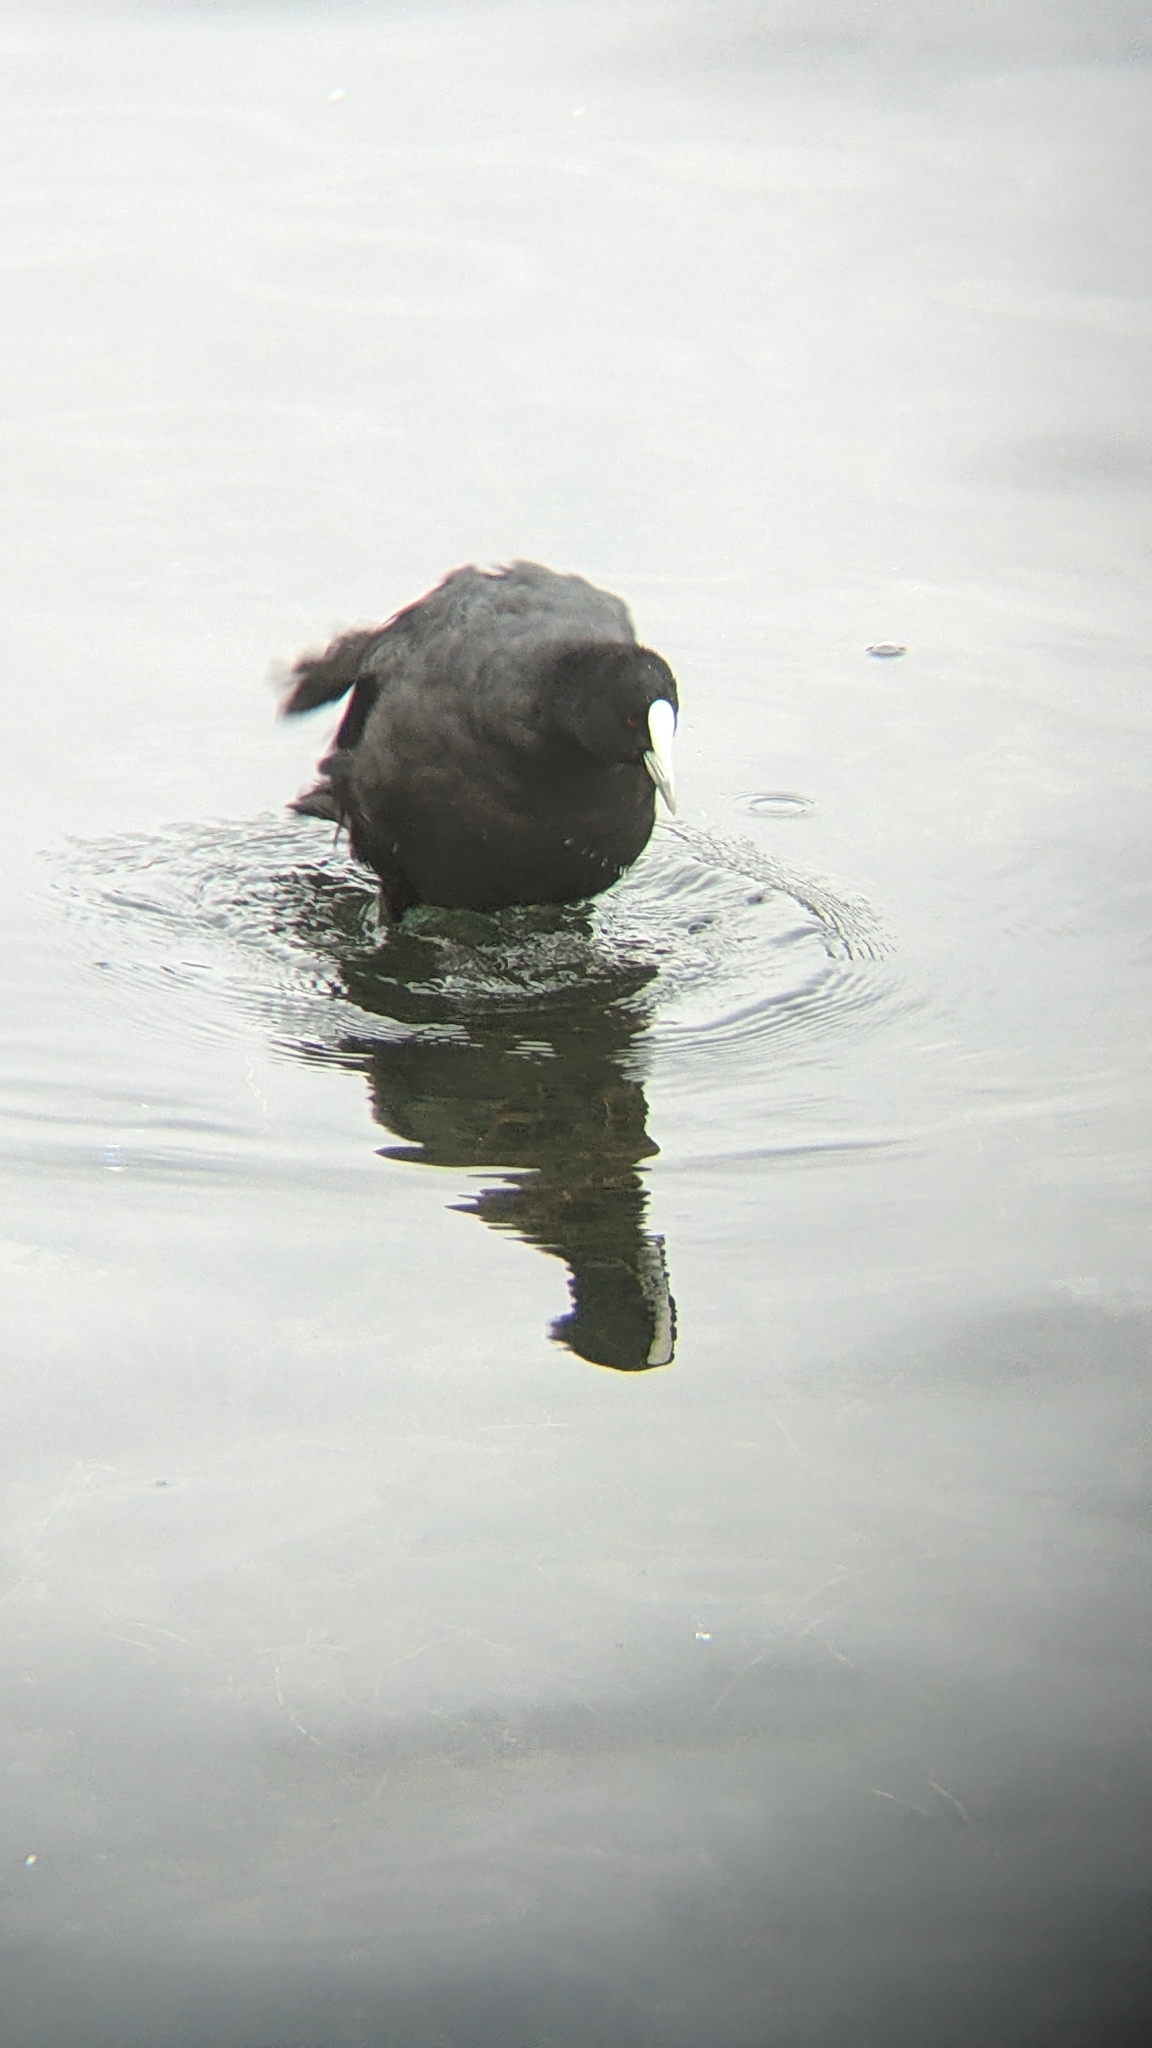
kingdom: Animalia
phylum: Chordata
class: Aves
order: Gruiformes
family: Rallidae
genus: Fulica
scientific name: Fulica atra
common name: Eurasian coot
